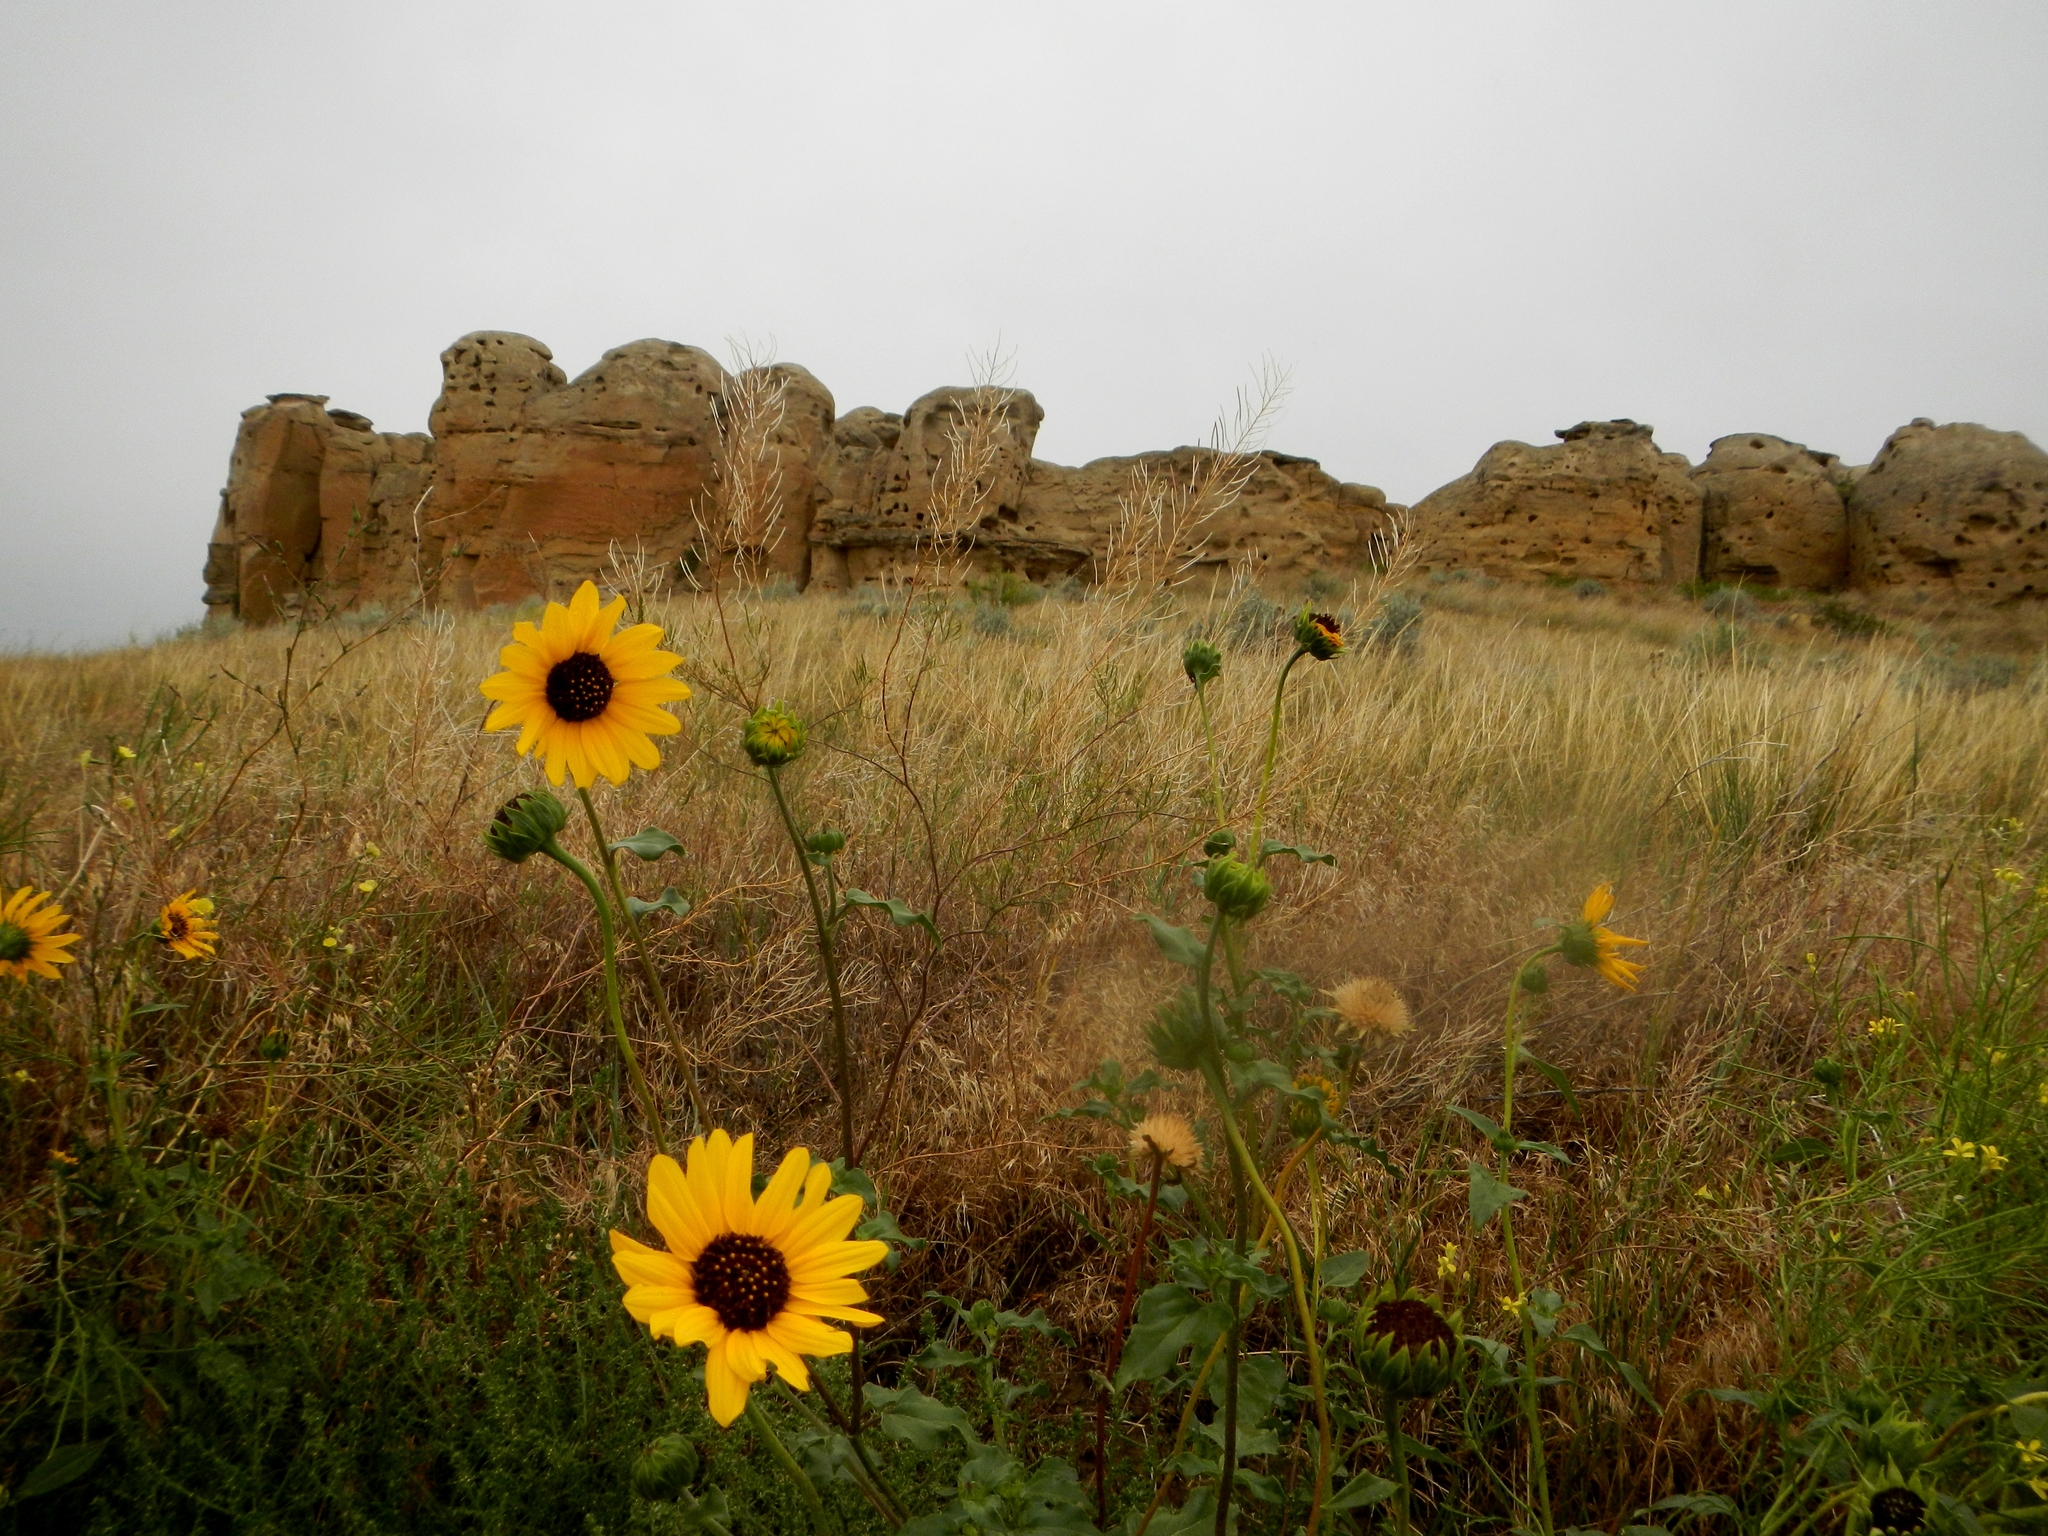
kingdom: Plantae
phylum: Tracheophyta
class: Magnoliopsida
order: Asterales
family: Asteraceae
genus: Helianthus
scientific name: Helianthus petiolaris
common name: Lesser sunflower
